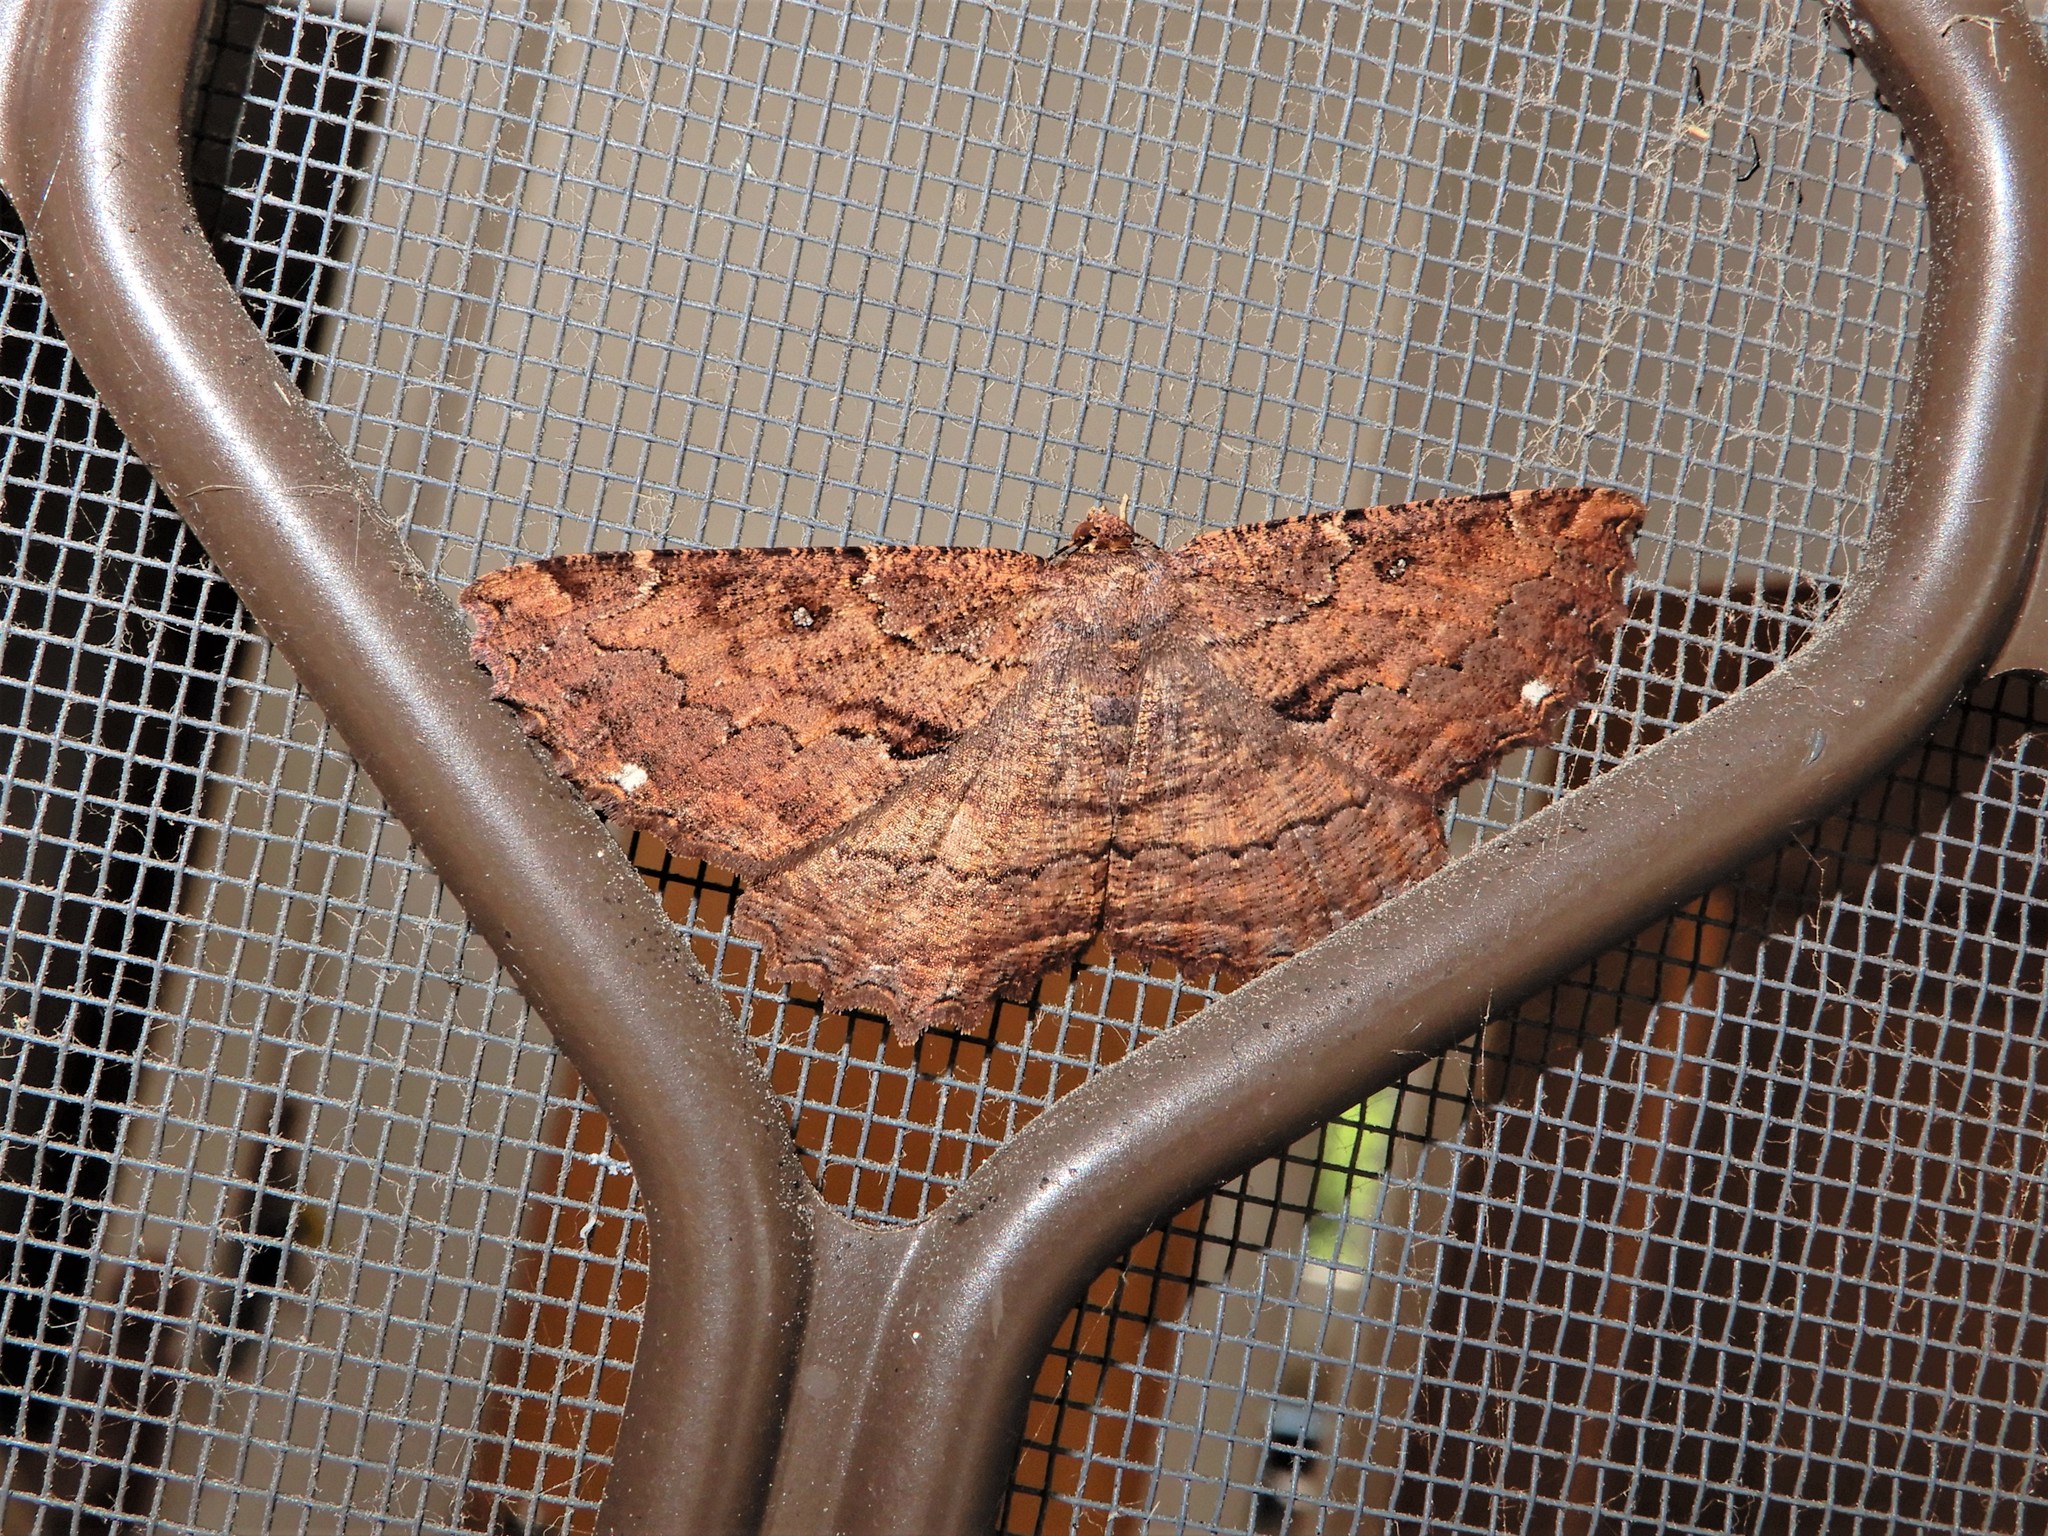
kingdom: Animalia
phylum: Arthropoda
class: Insecta
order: Lepidoptera
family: Geometridae
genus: Gellonia
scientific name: Gellonia dejectaria
